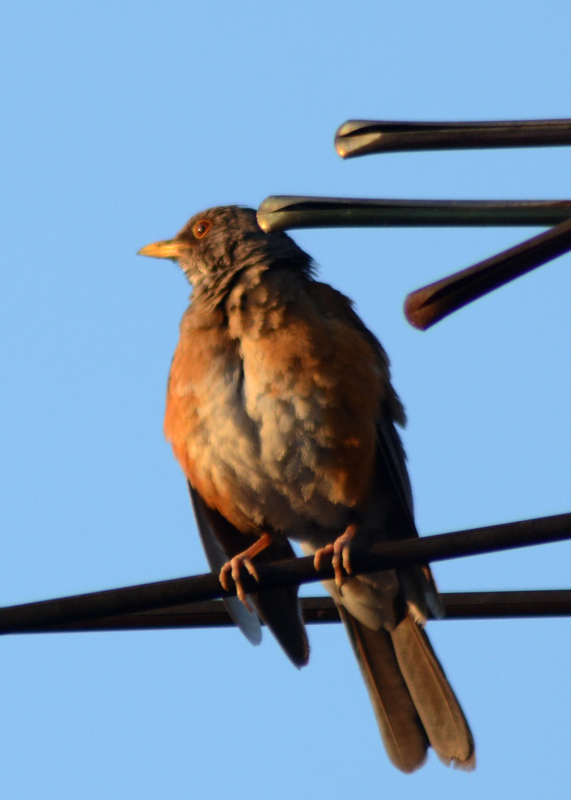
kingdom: Animalia
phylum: Chordata
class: Aves
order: Passeriformes
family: Turdidae
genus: Turdus
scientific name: Turdus rufopalliatus
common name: Rufous-backed robin
